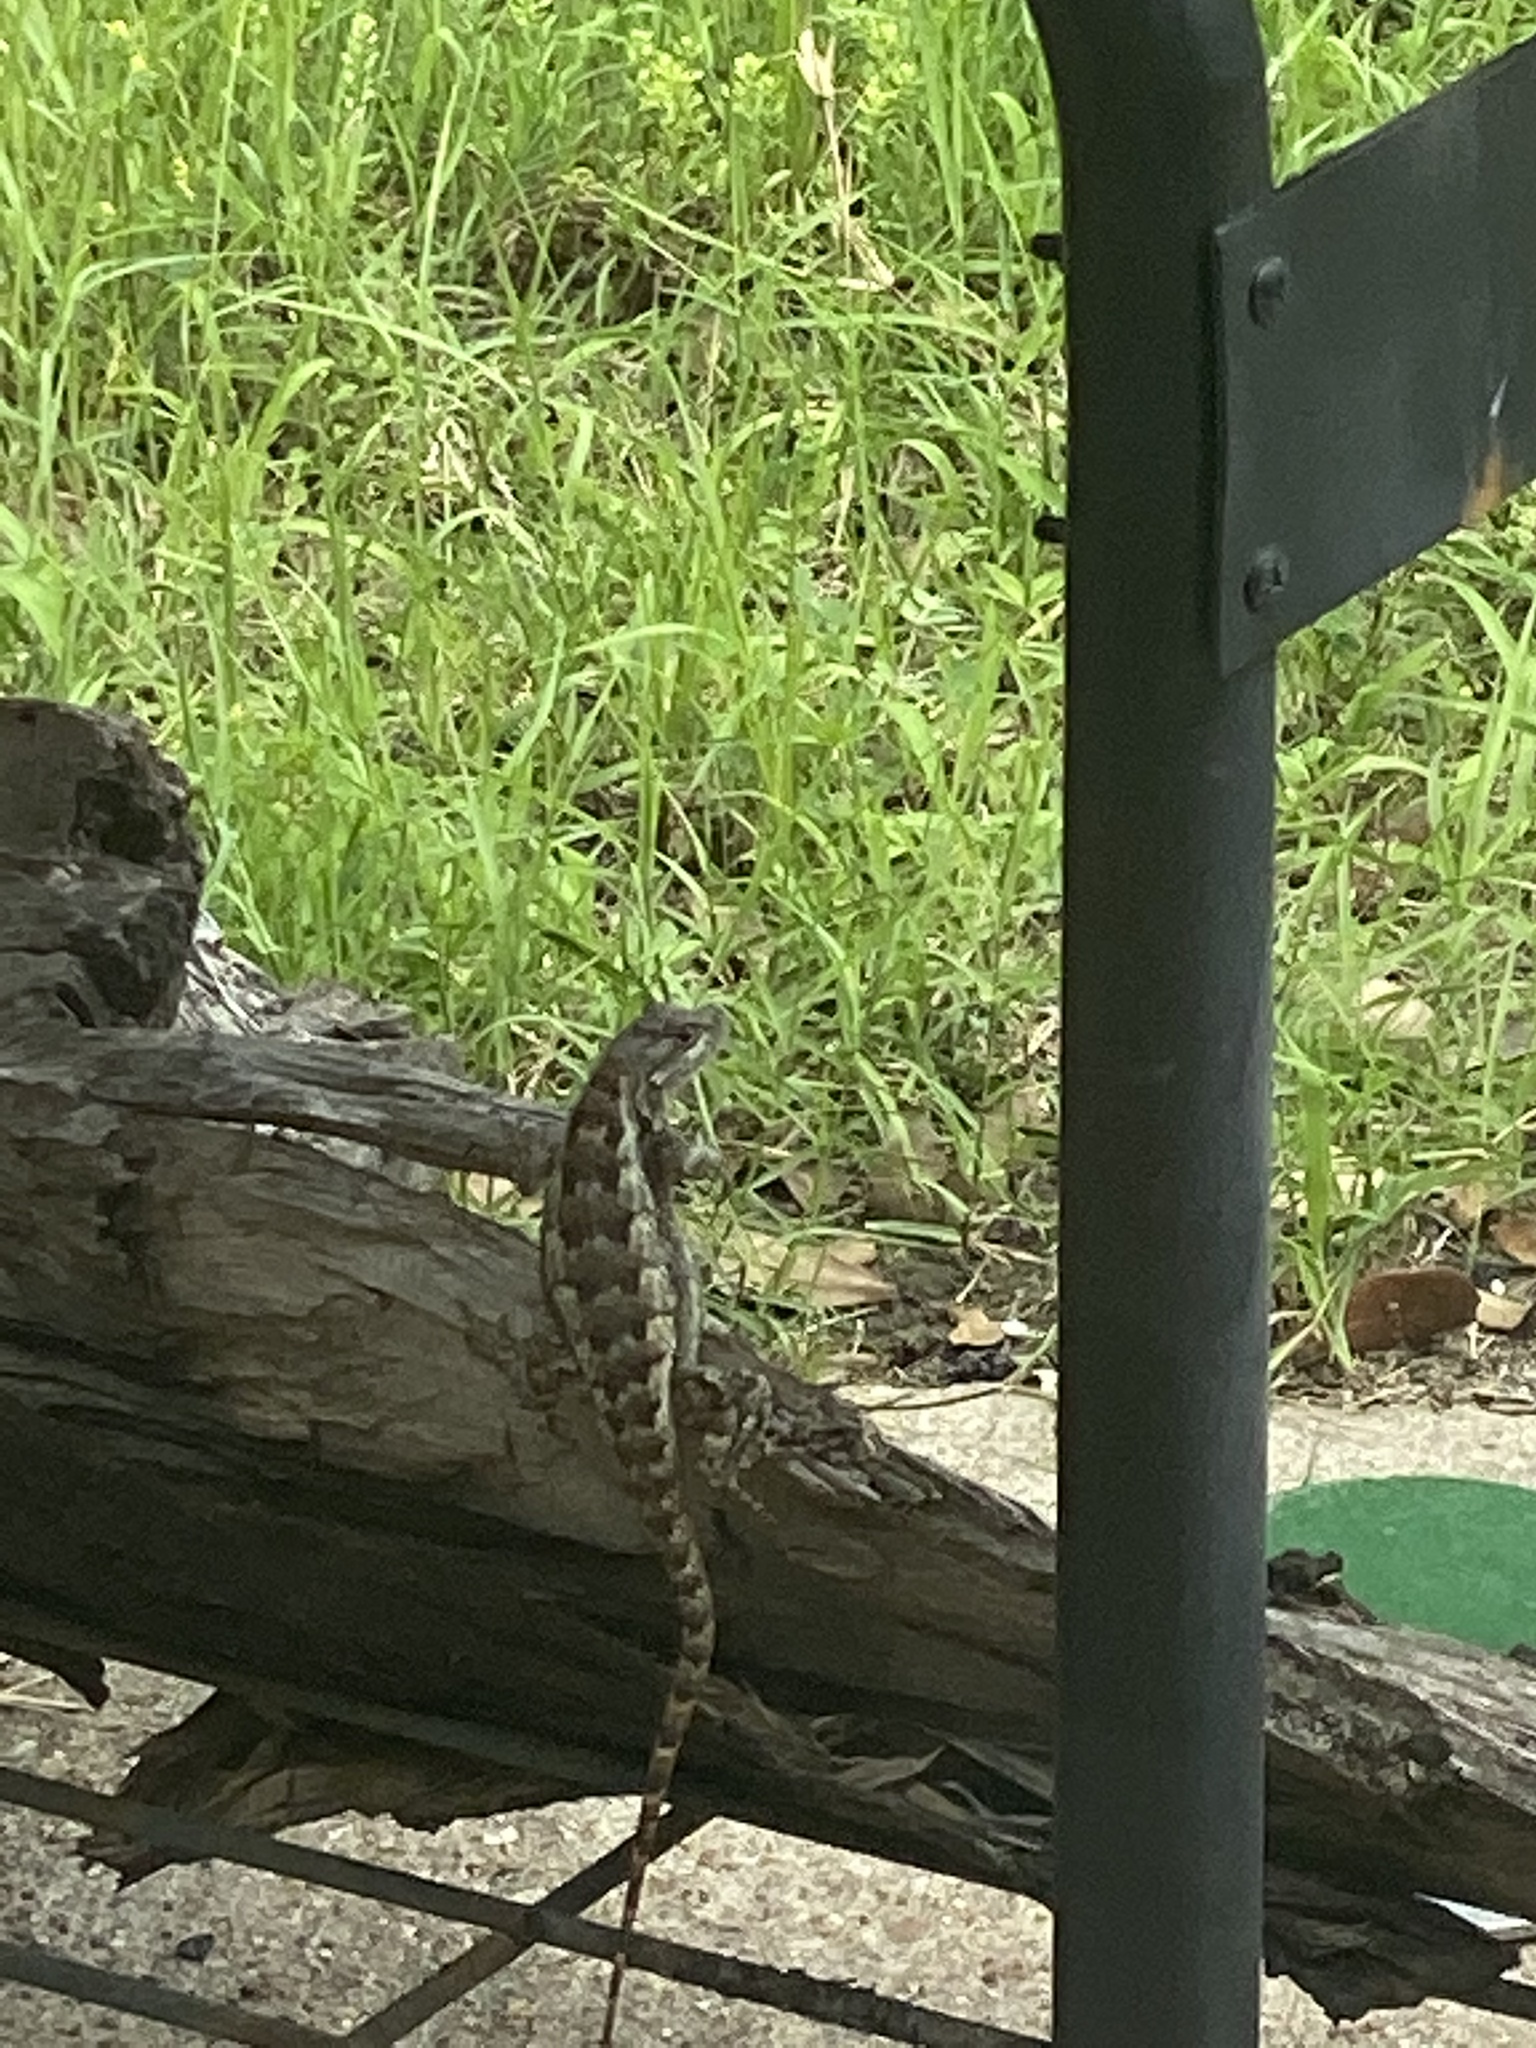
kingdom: Animalia
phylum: Chordata
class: Squamata
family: Phrynosomatidae
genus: Sceloporus
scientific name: Sceloporus olivaceus
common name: Texas spiny lizard
